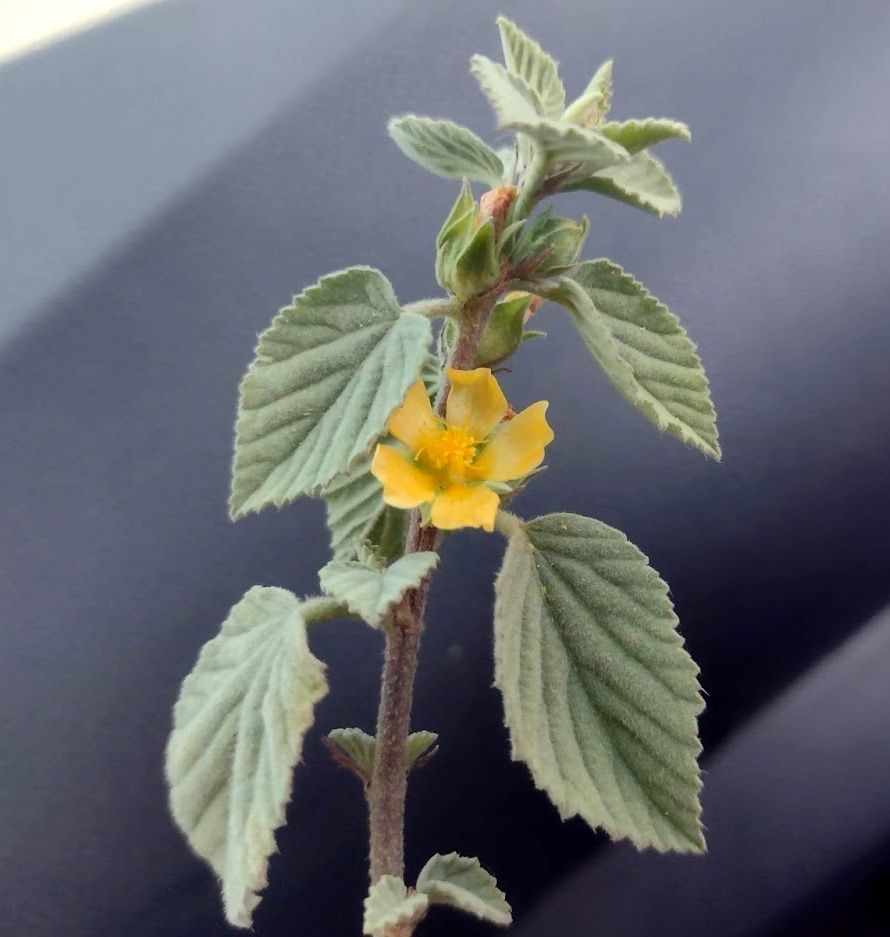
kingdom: Plantae
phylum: Tracheophyta
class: Magnoliopsida
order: Malvales
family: Malvaceae
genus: Malvastrum
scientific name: Malvastrum bicuspidatum
